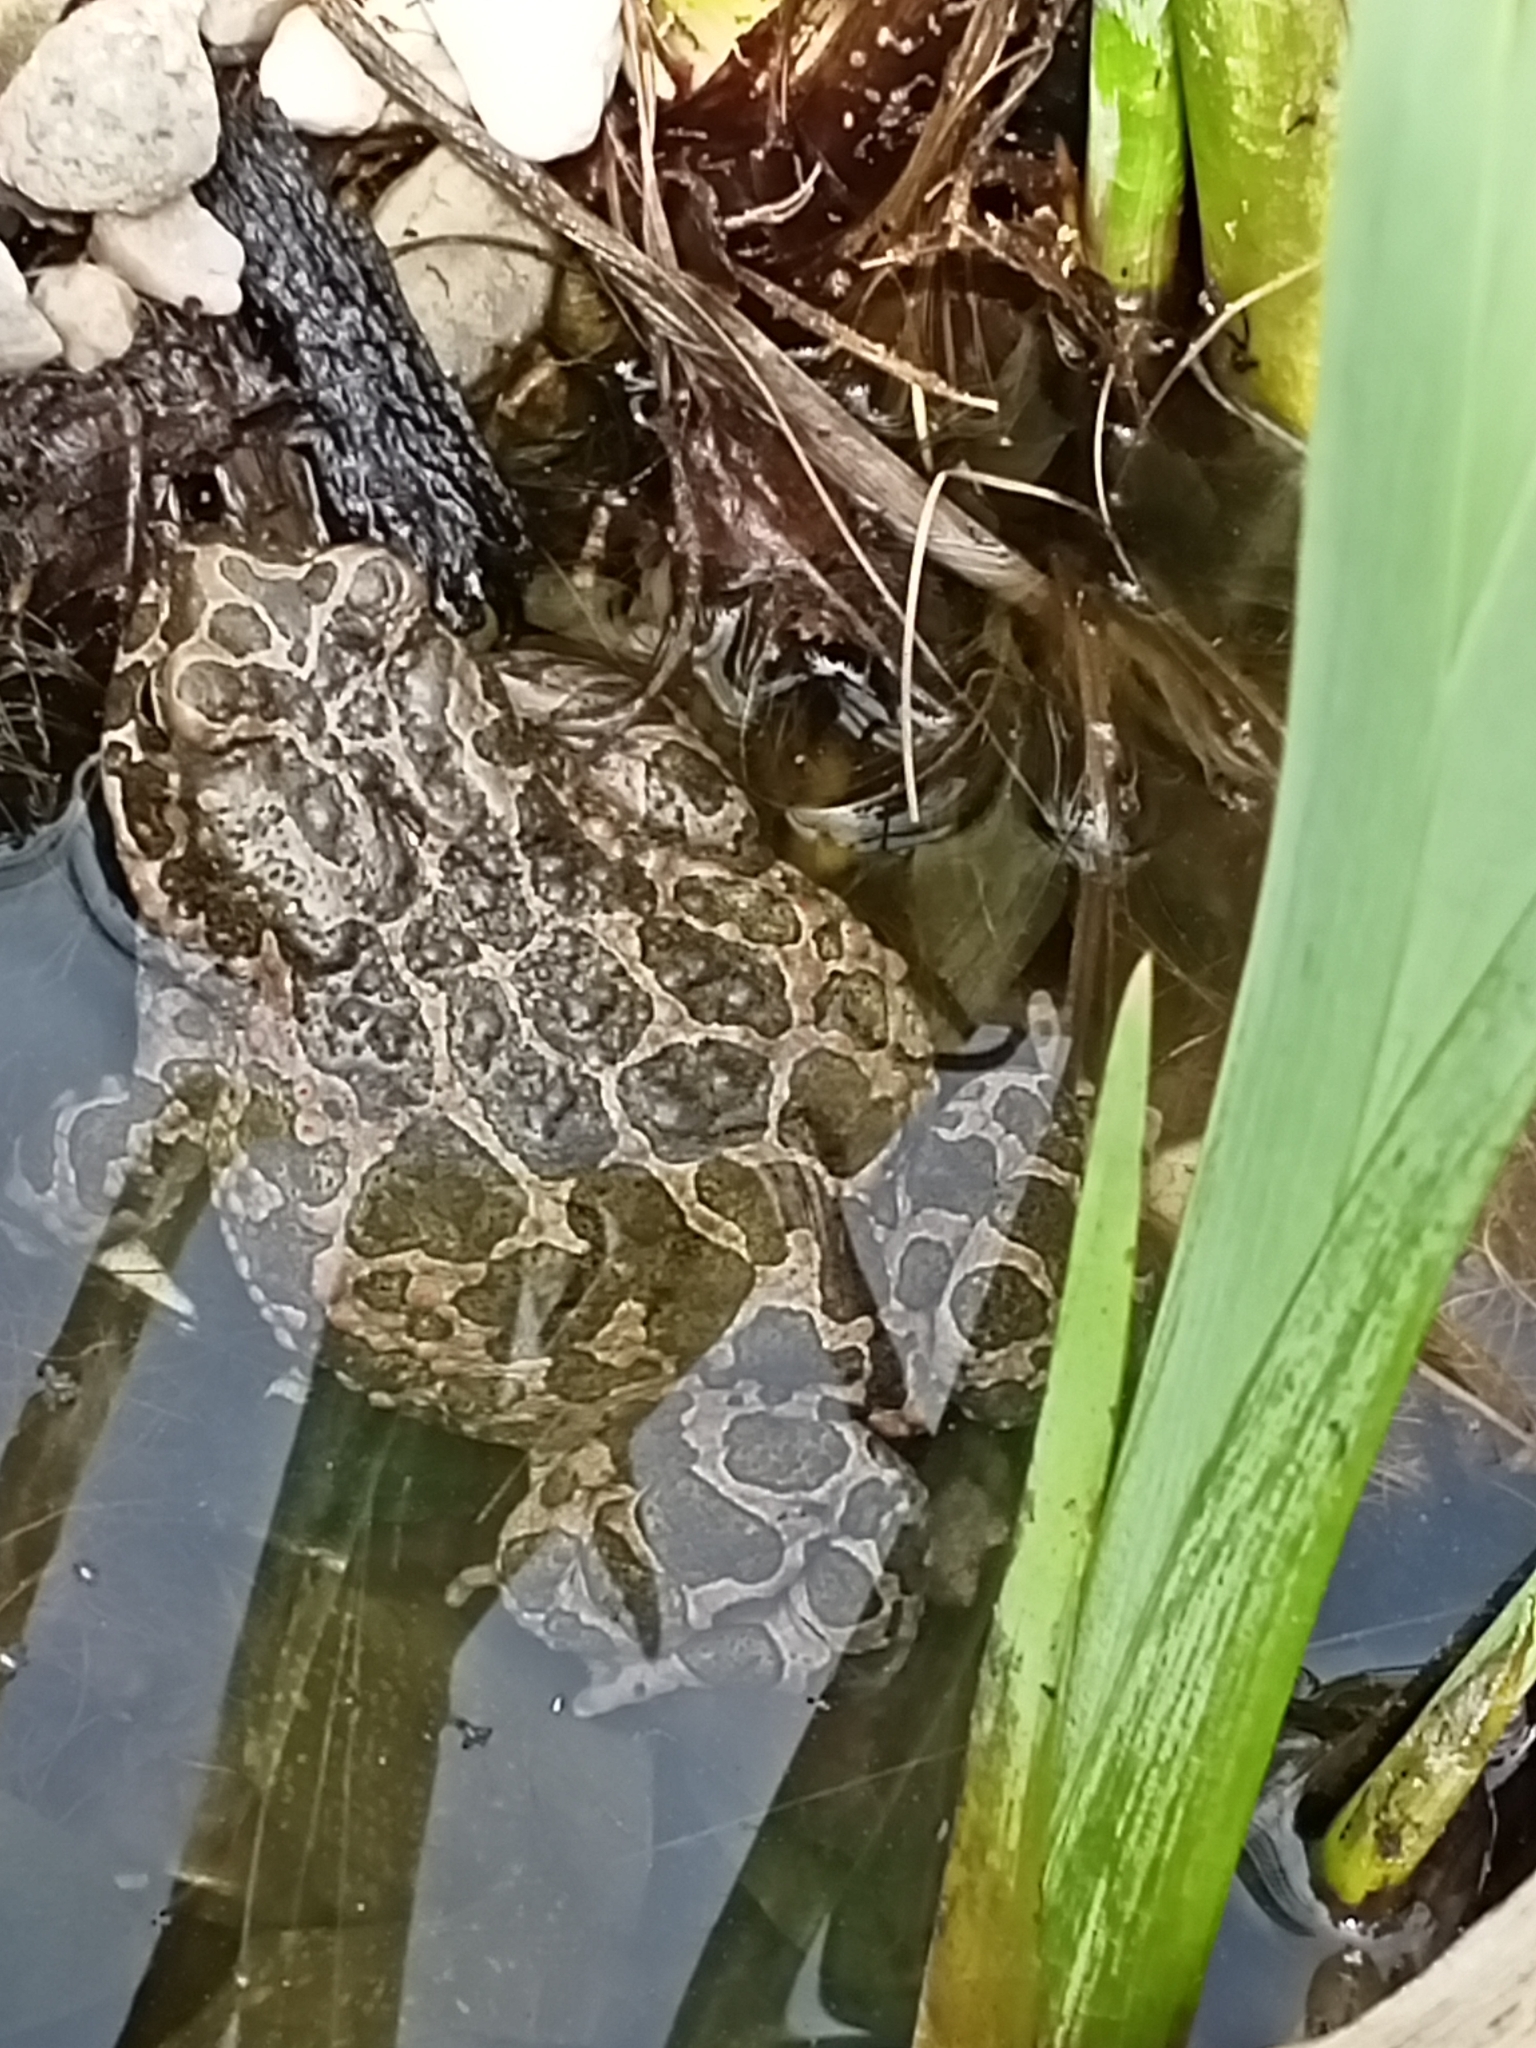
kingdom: Animalia
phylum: Chordata
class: Amphibia
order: Anura
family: Bufonidae
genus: Bufotes
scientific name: Bufotes viridis
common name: European green toad
